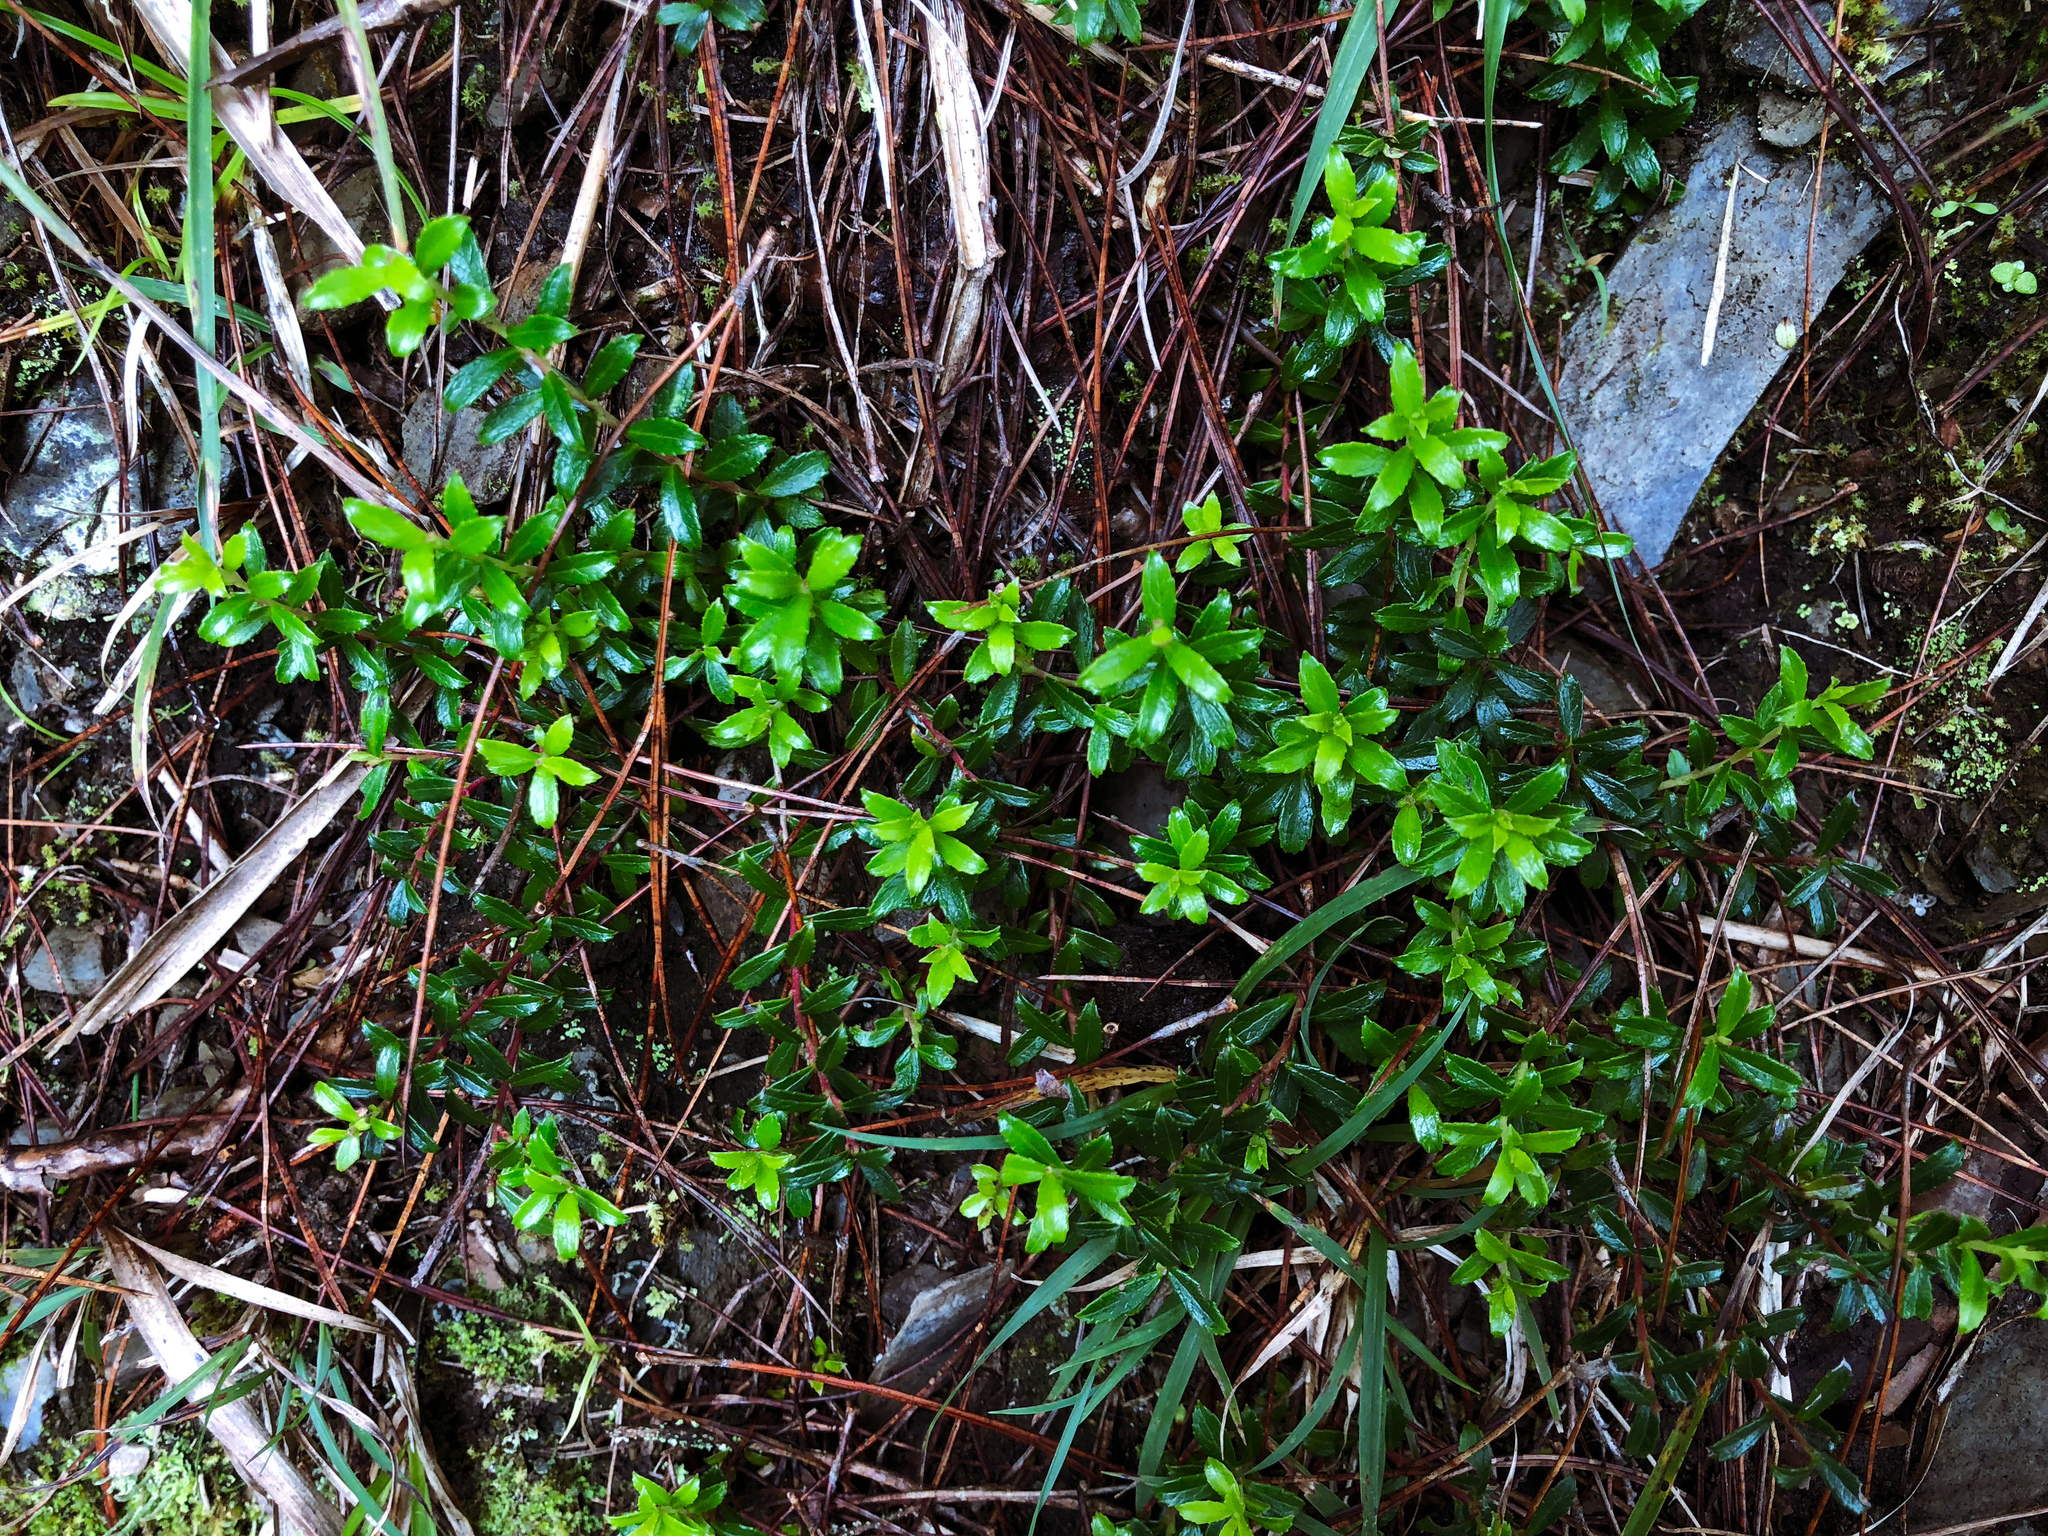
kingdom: Plantae
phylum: Tracheophyta
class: Magnoliopsida
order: Ericales
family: Ericaceae
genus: Gaultheria
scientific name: Gaultheria borneensis
